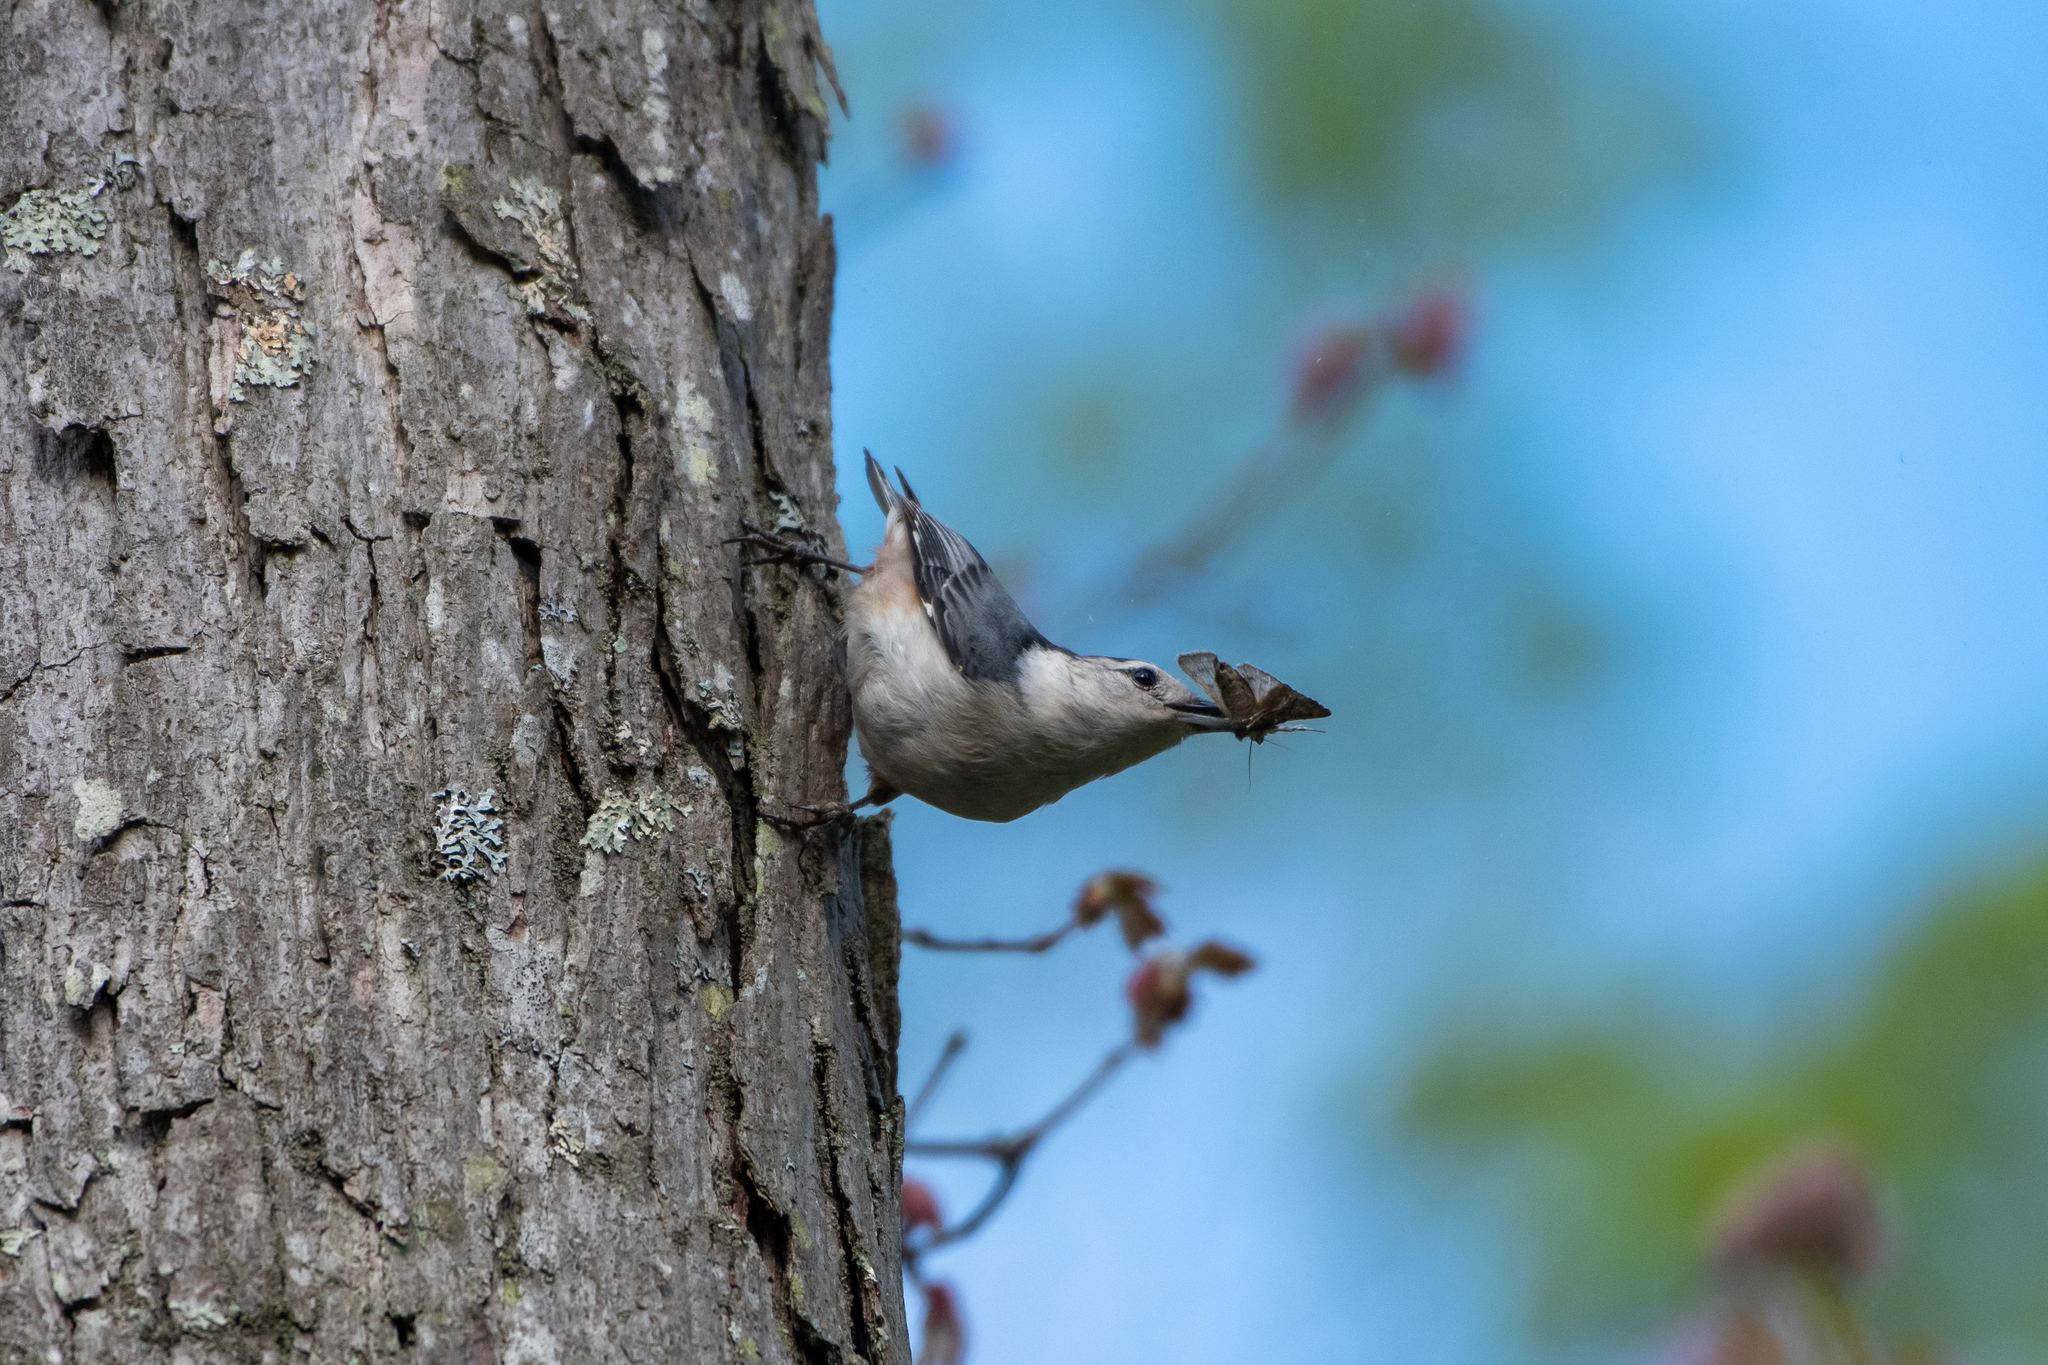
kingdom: Animalia
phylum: Chordata
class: Aves
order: Passeriformes
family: Sittidae
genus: Sitta
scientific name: Sitta carolinensis
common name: White-breasted nuthatch
